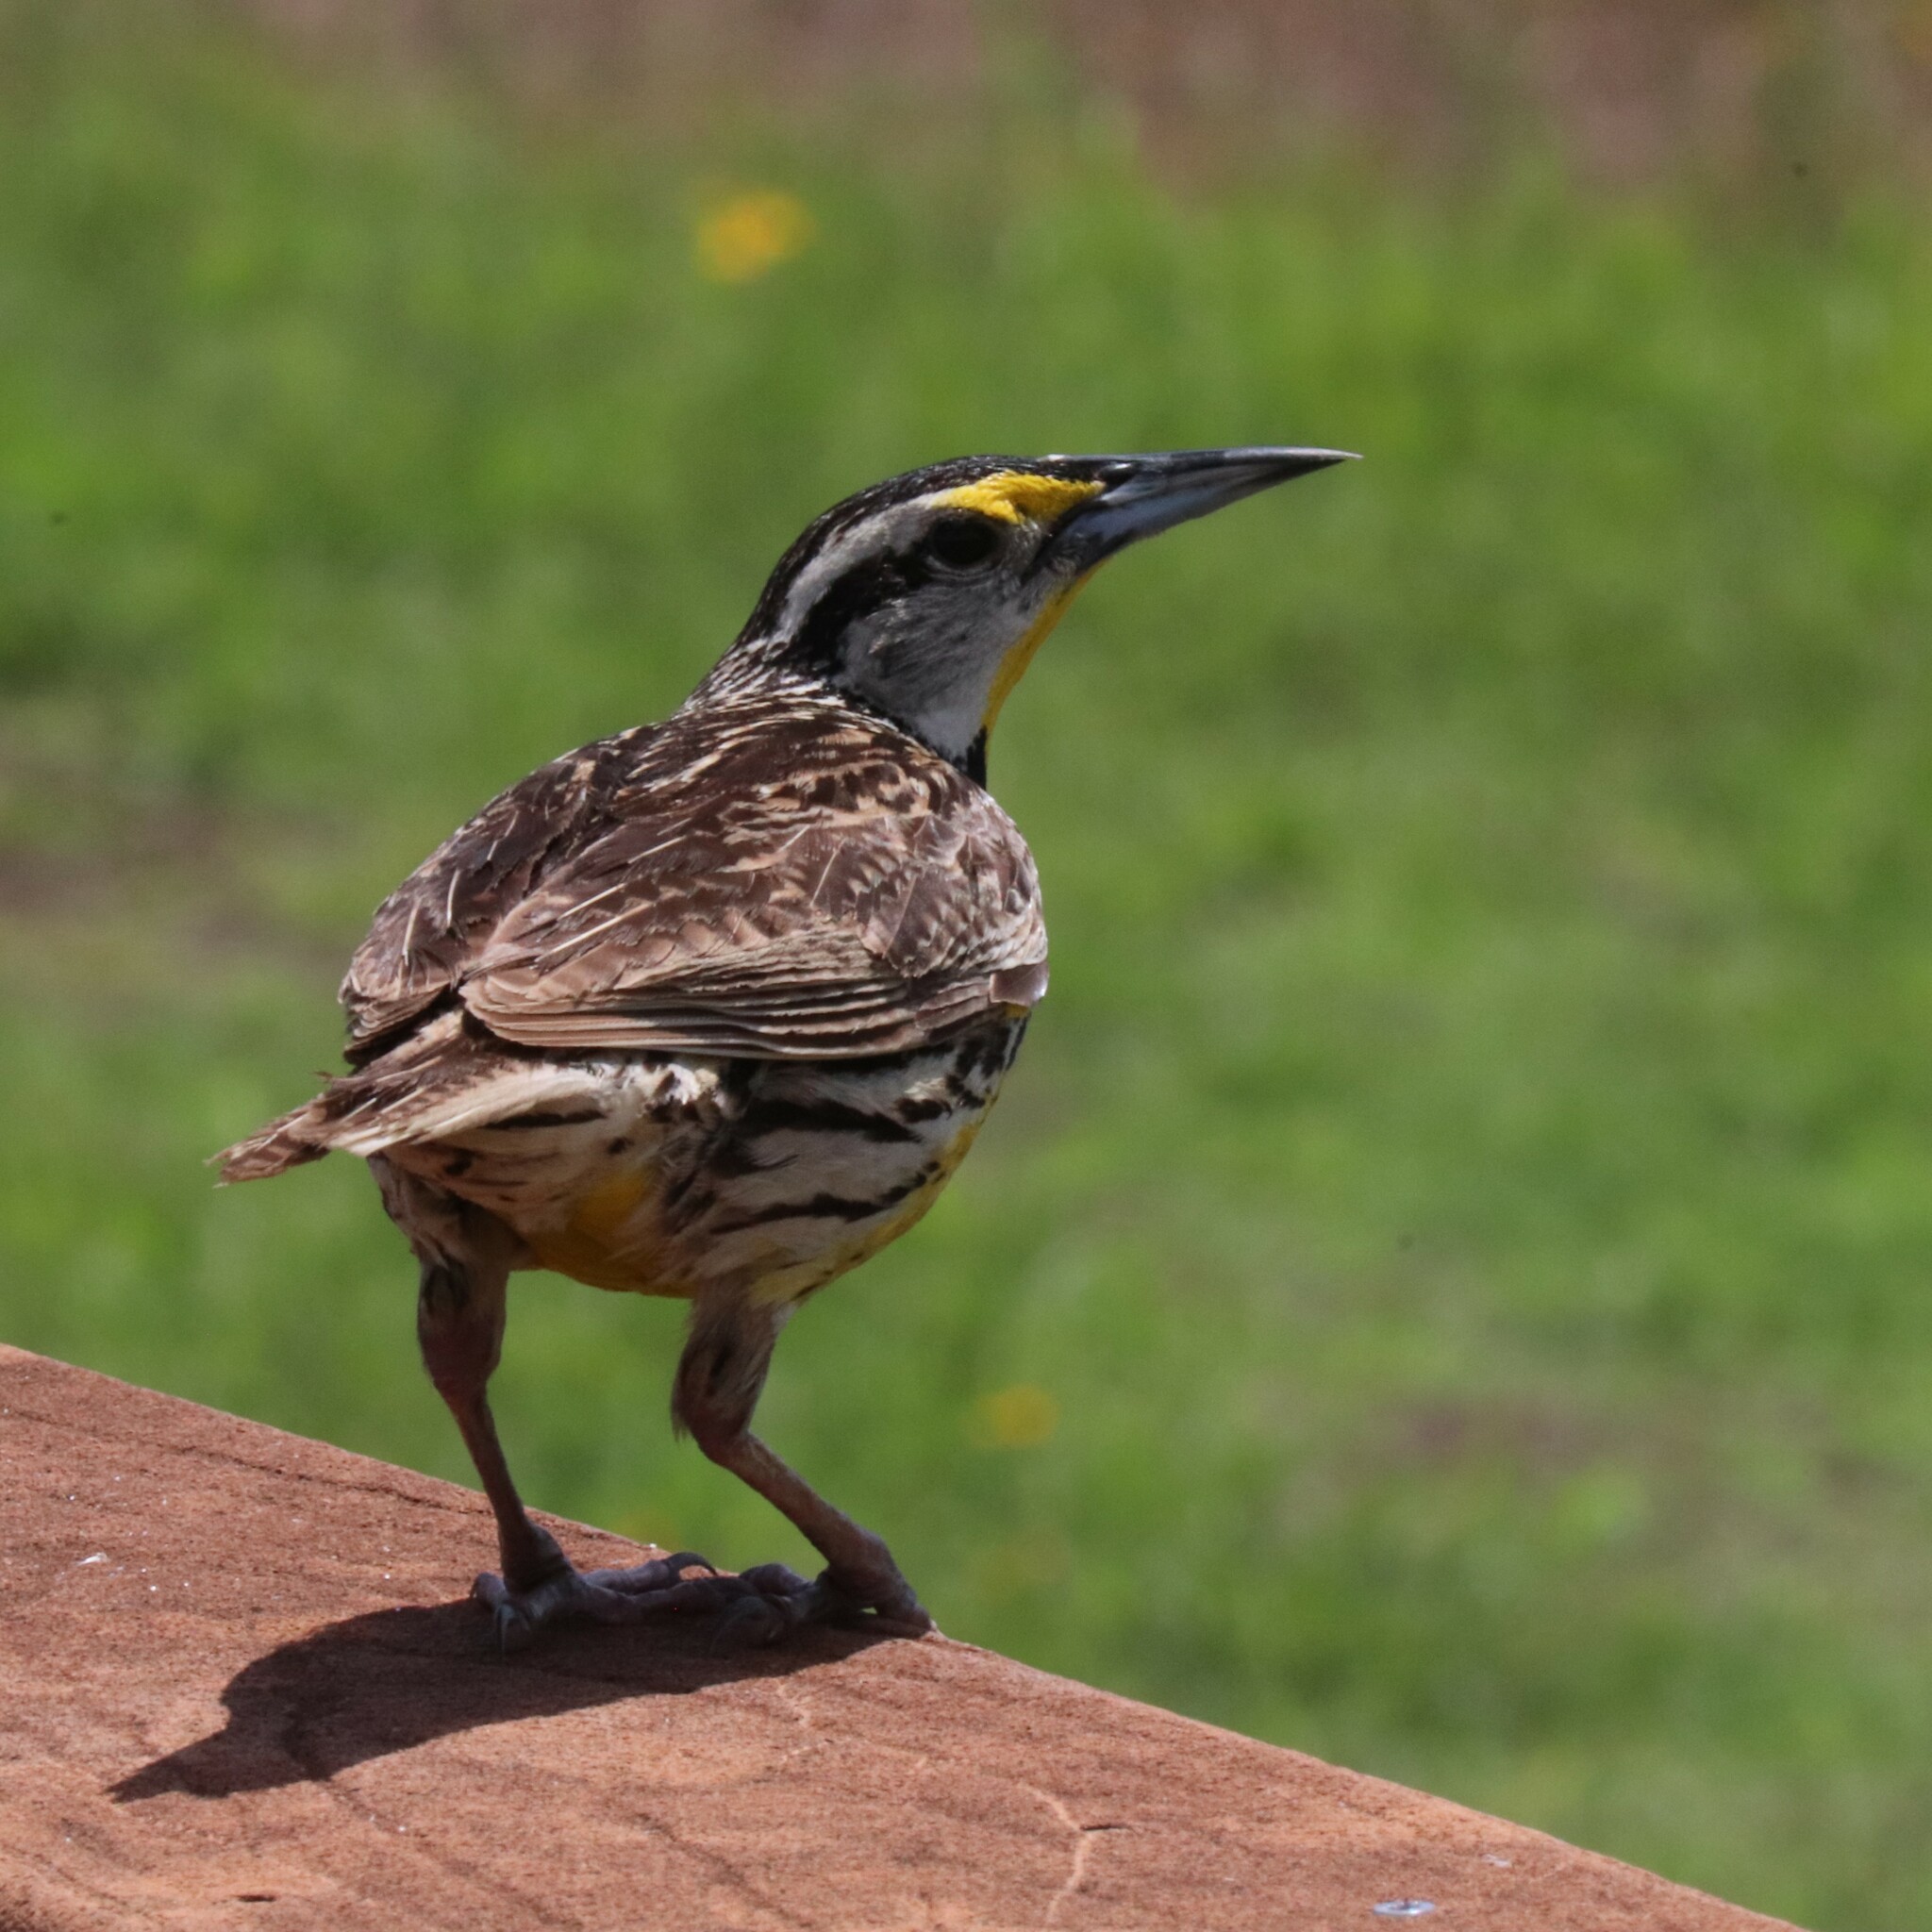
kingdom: Animalia
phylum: Chordata
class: Aves
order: Passeriformes
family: Icteridae
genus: Sturnella
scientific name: Sturnella magna
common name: Eastern meadowlark
